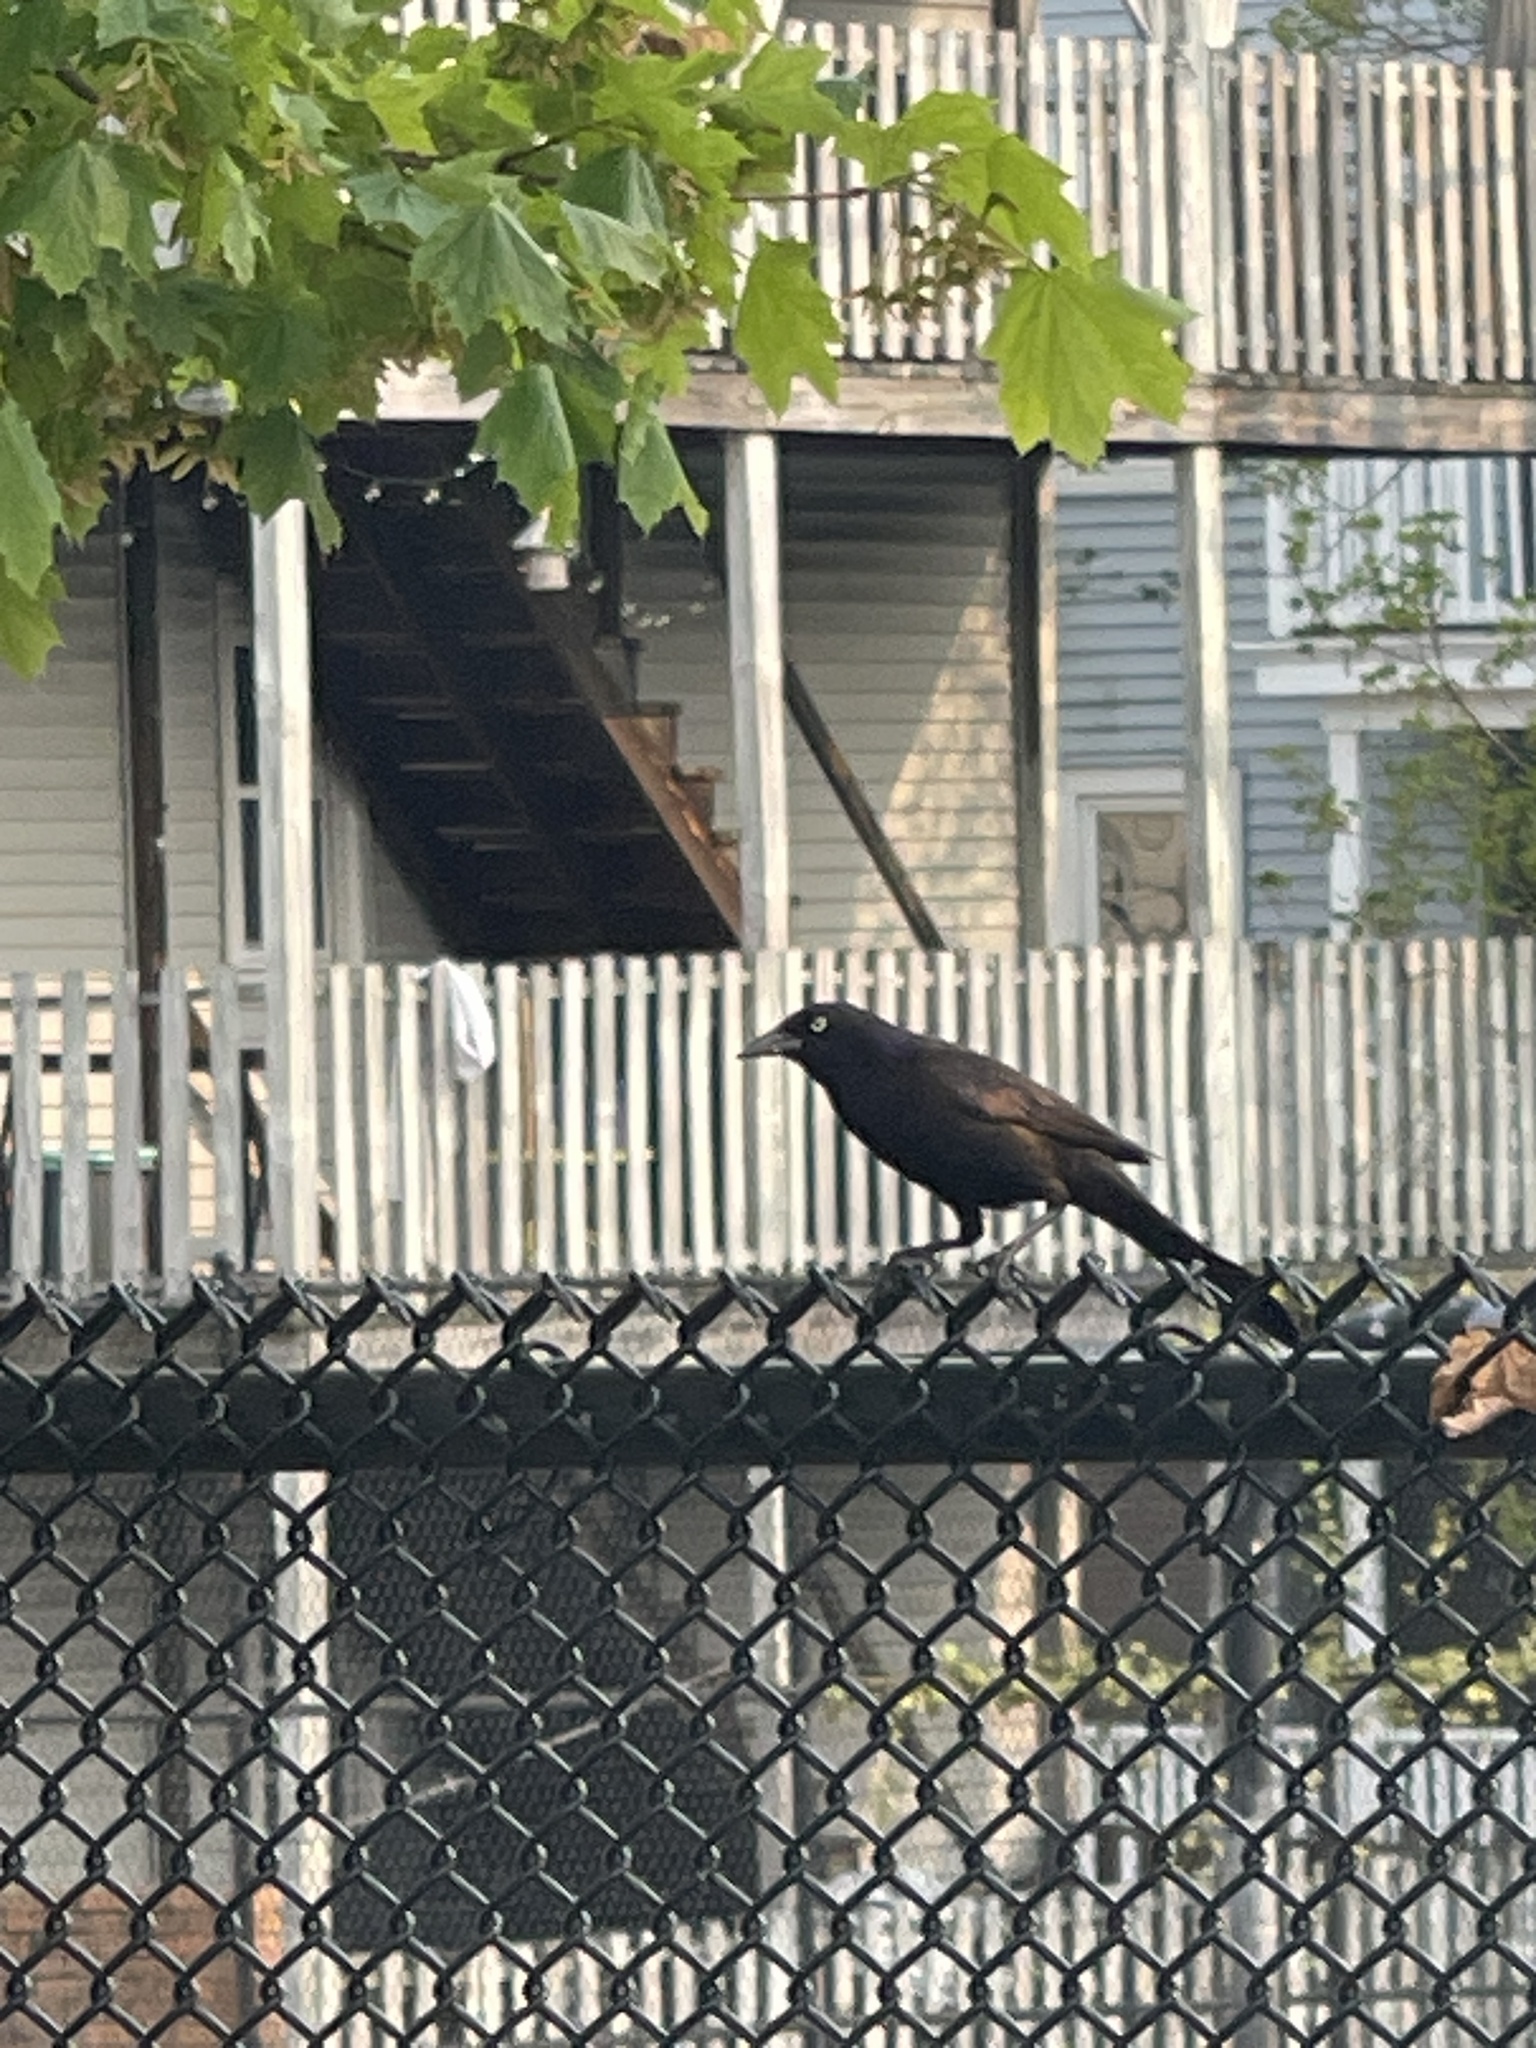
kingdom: Animalia
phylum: Chordata
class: Aves
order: Passeriformes
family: Icteridae
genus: Quiscalus
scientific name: Quiscalus quiscula
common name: Common grackle
